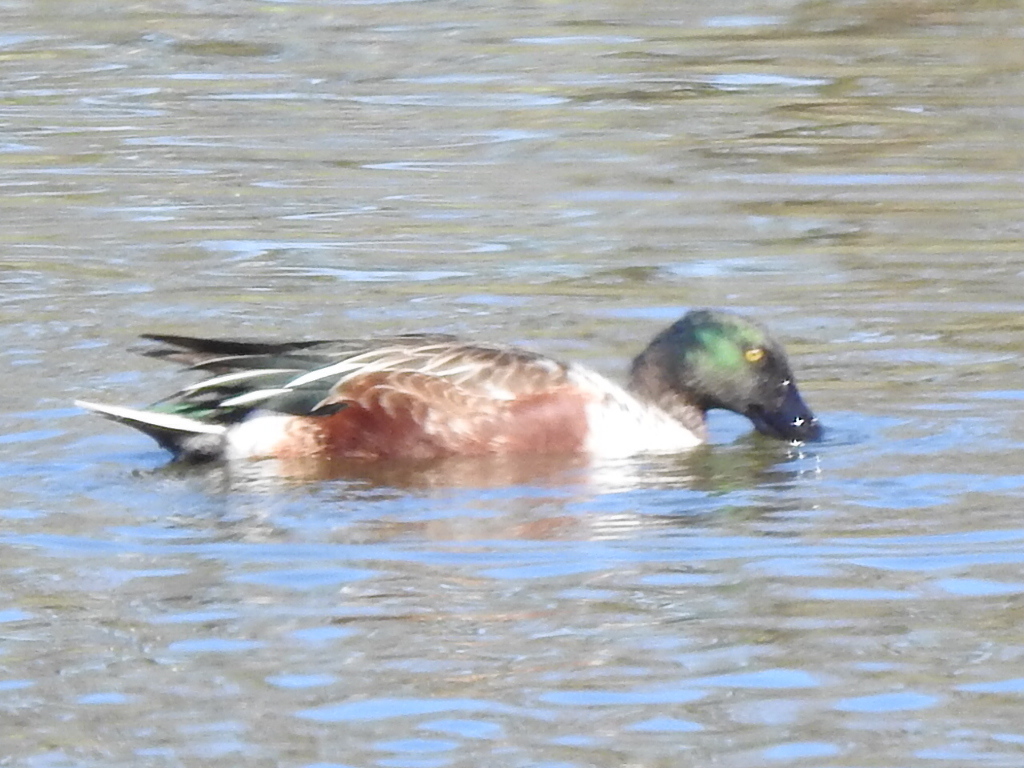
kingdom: Animalia
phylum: Chordata
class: Aves
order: Anseriformes
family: Anatidae
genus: Spatula
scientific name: Spatula clypeata
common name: Northern shoveler
